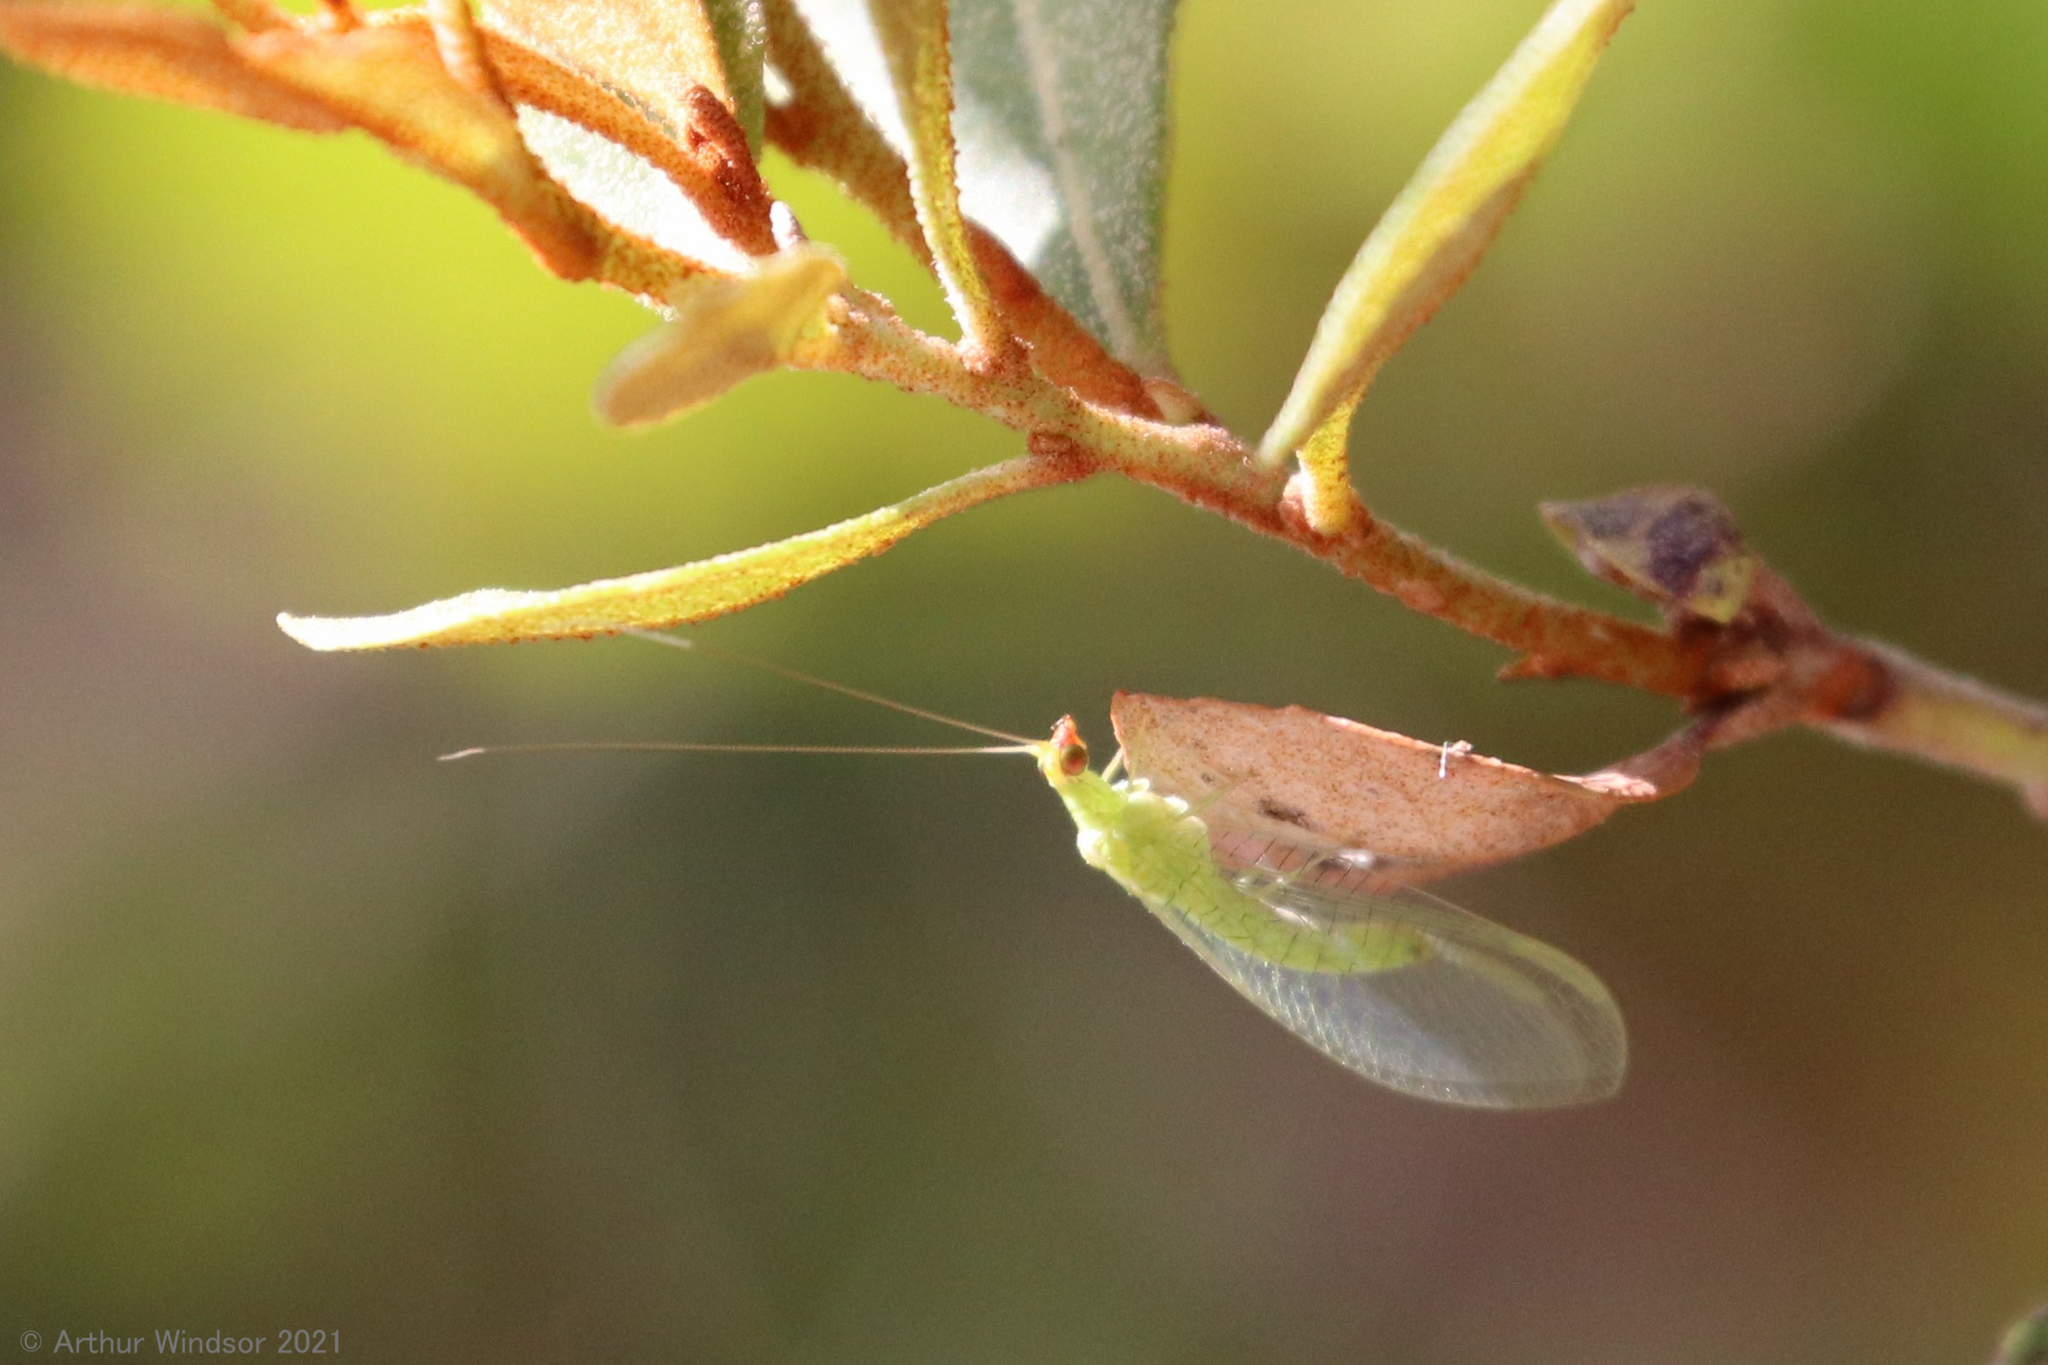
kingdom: Animalia
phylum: Arthropoda
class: Insecta
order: Neuroptera
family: Chrysopidae
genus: Chrysopodes
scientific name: Chrysopodes collaris
